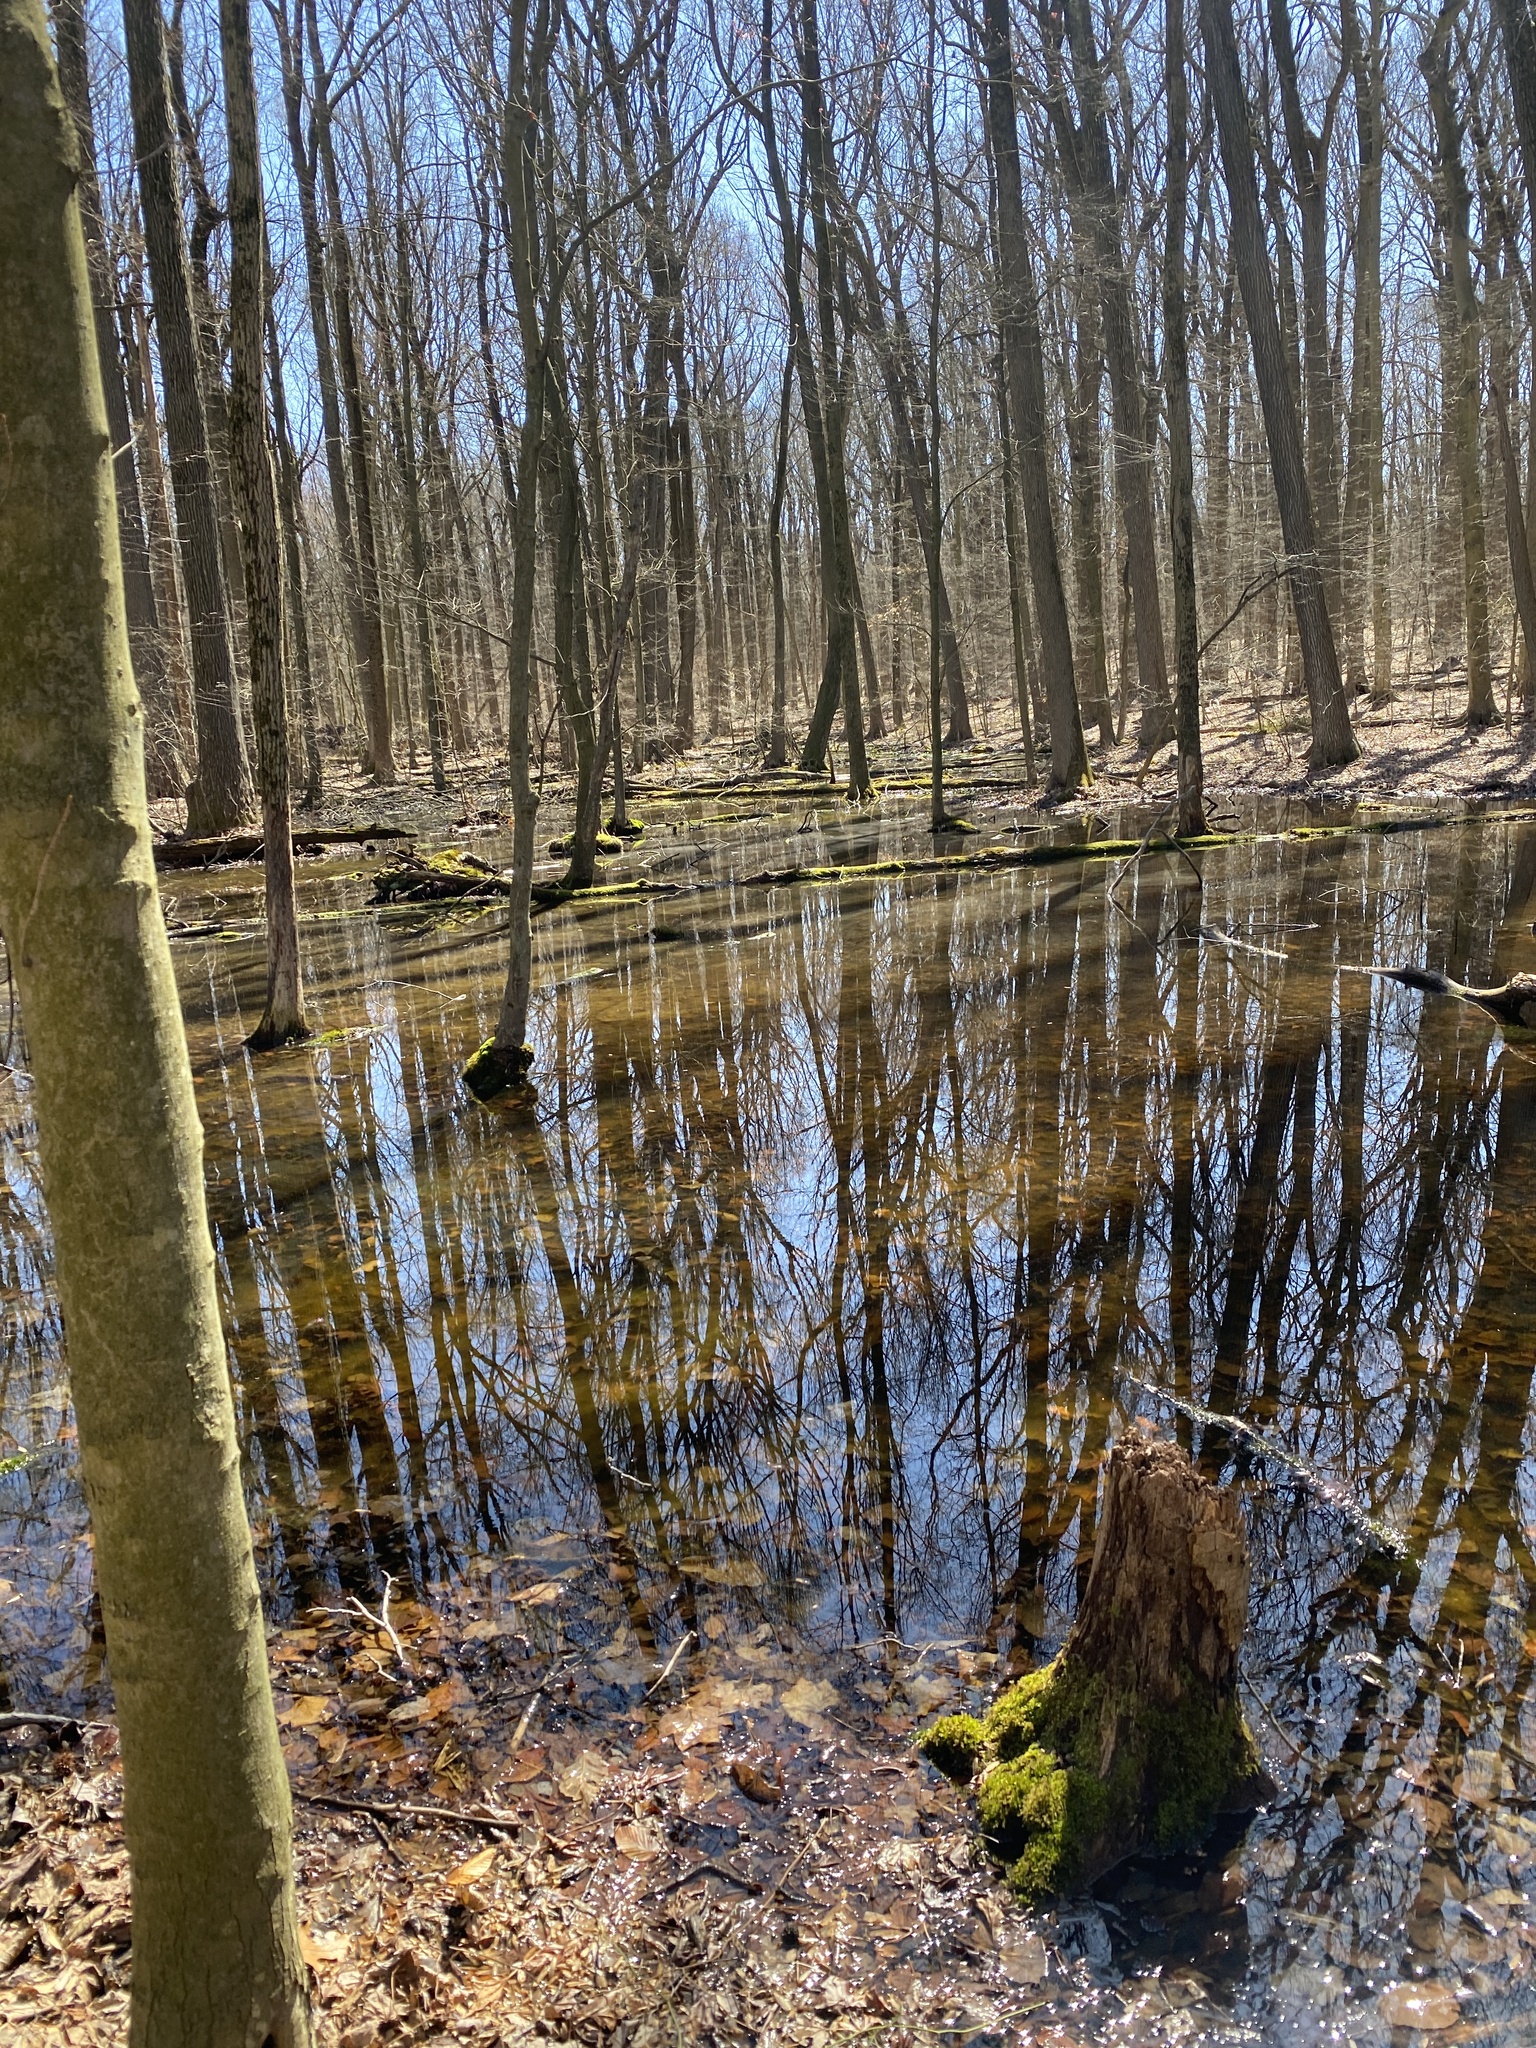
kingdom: Animalia
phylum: Chordata
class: Amphibia
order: Anura
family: Ranidae
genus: Lithobates
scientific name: Lithobates sylvaticus
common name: Wood frog
